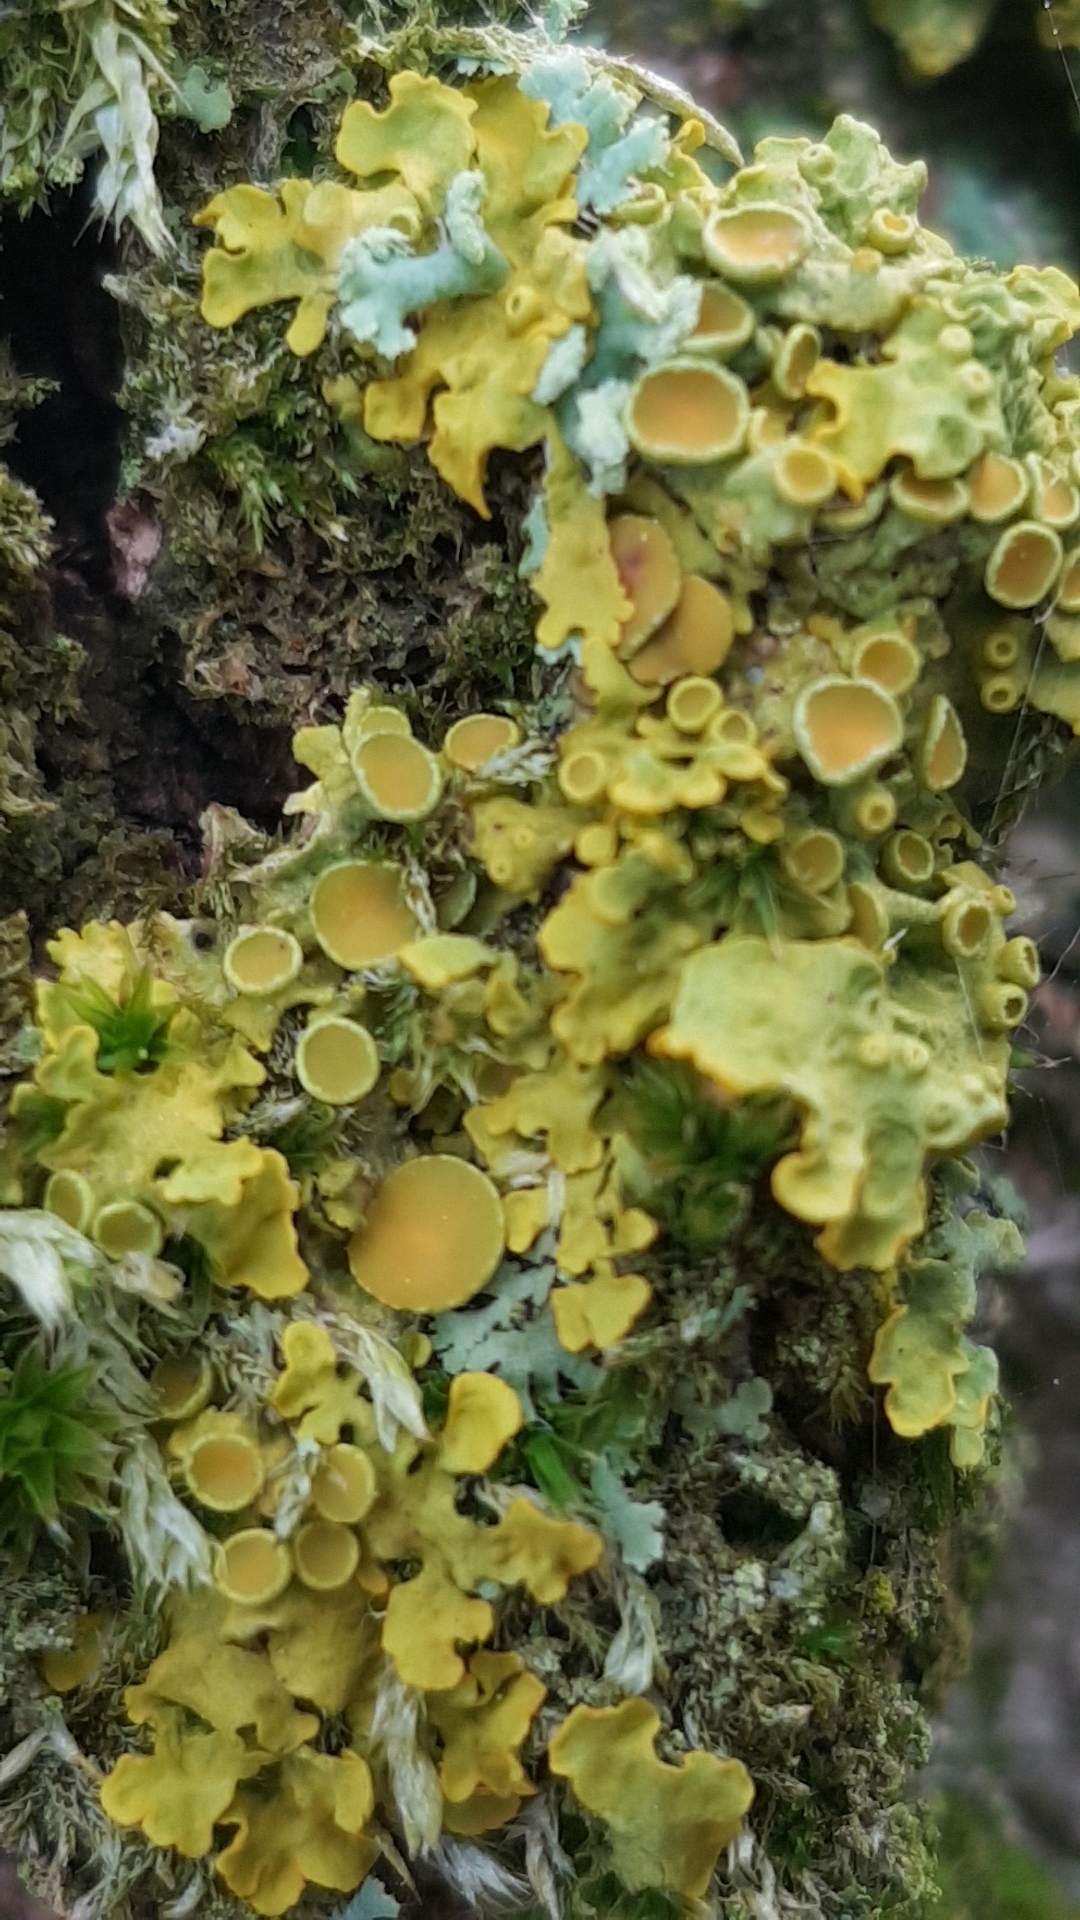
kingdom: Fungi
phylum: Ascomycota
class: Lecanoromycetes
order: Teloschistales
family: Teloschistaceae
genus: Xanthoria
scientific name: Xanthoria parietina
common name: Common orange lichen
